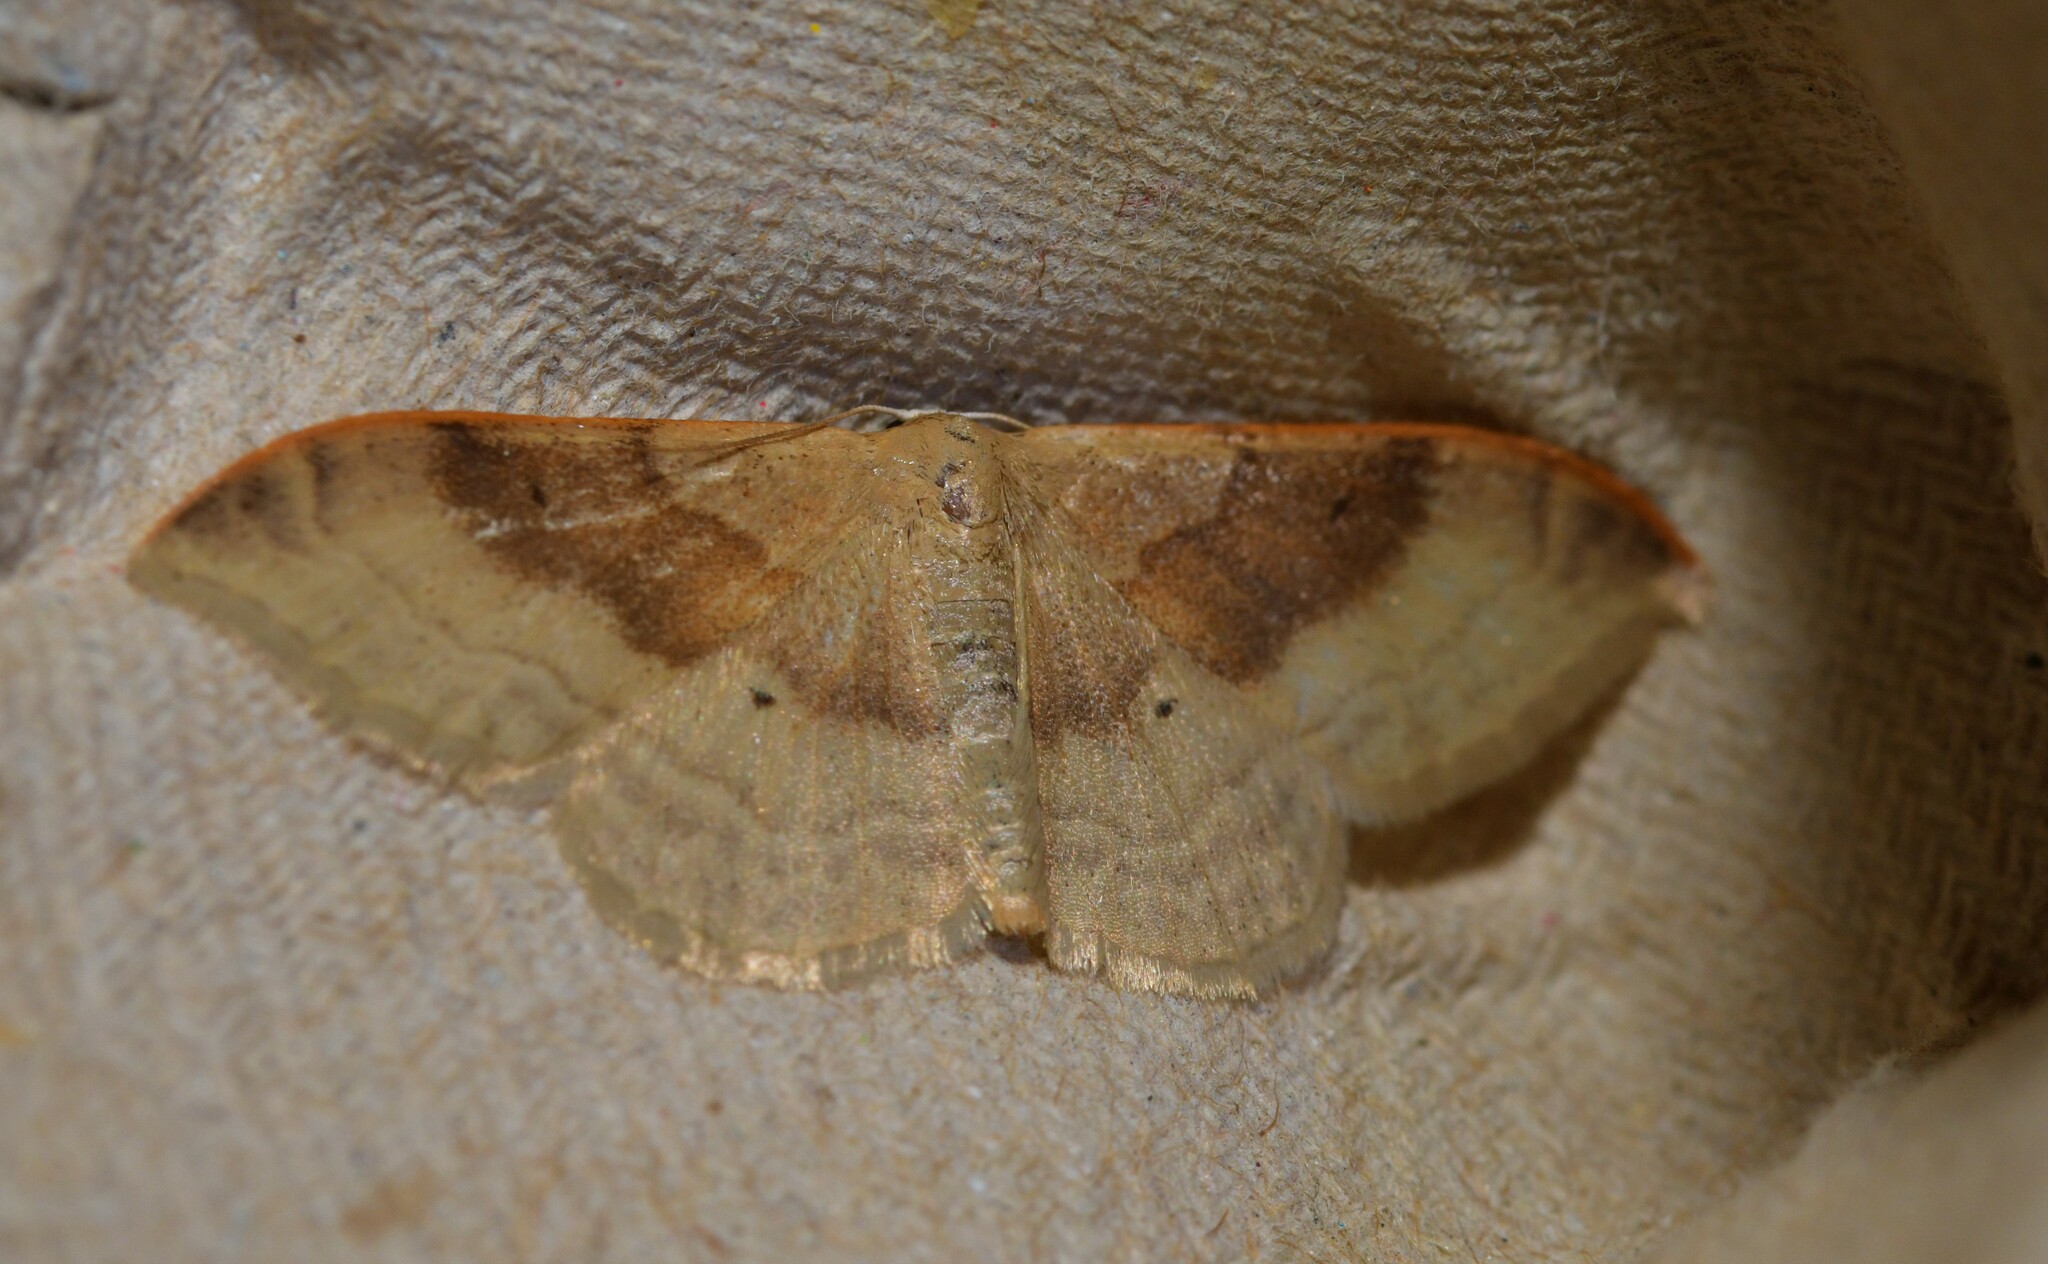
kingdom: Animalia
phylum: Arthropoda
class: Insecta
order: Lepidoptera
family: Geometridae
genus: Idaea
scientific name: Idaea degeneraria
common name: Portland ribbon wave
